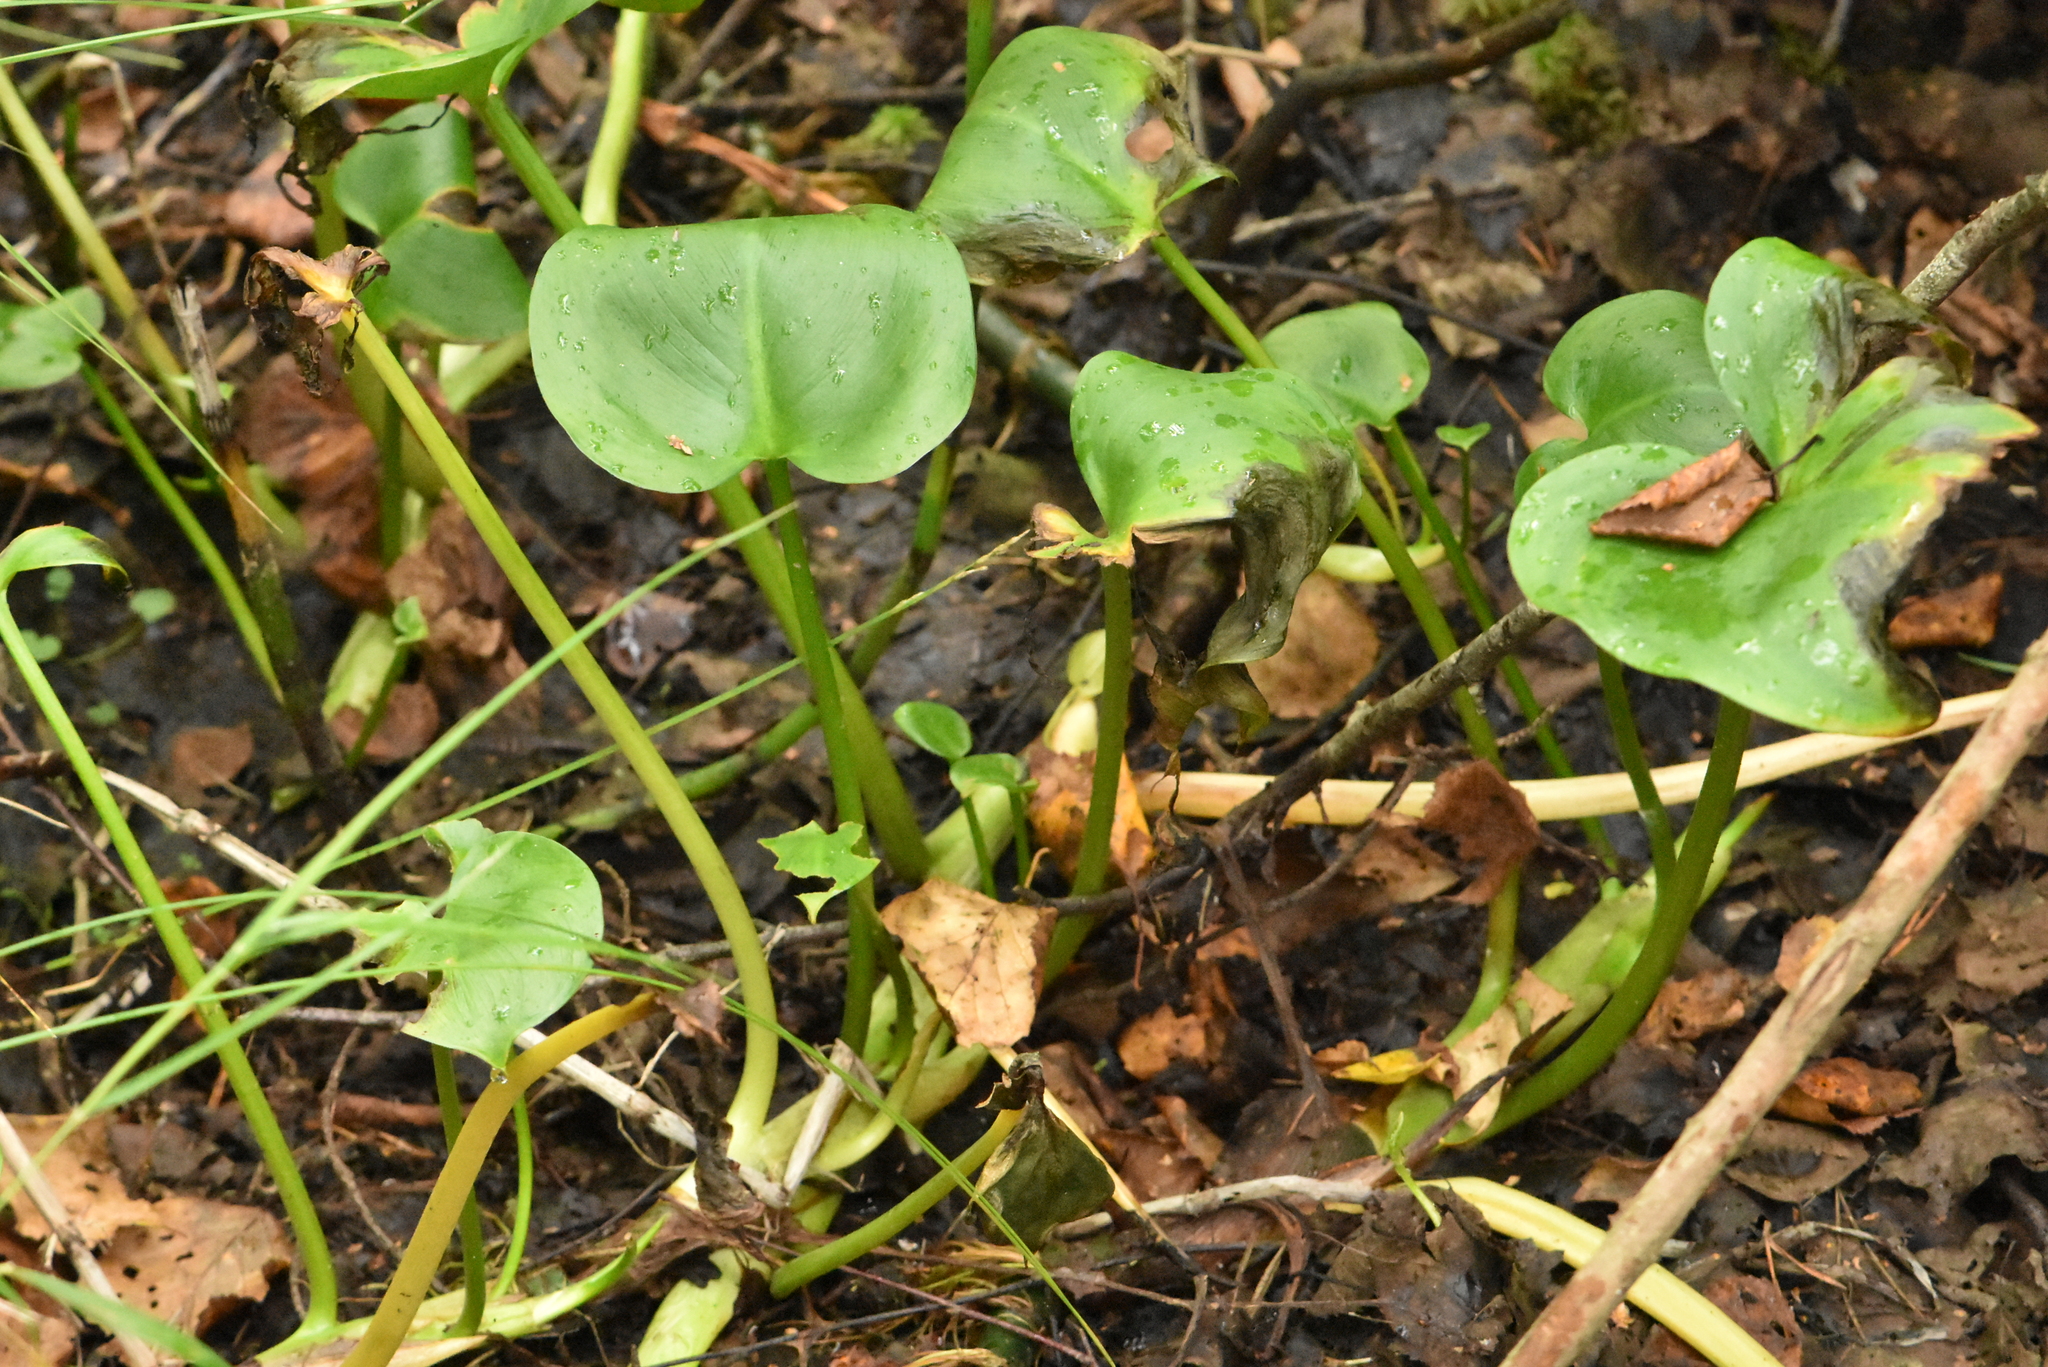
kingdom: Plantae
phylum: Tracheophyta
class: Liliopsida
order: Alismatales
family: Araceae
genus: Calla
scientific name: Calla palustris
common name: Bog arum
